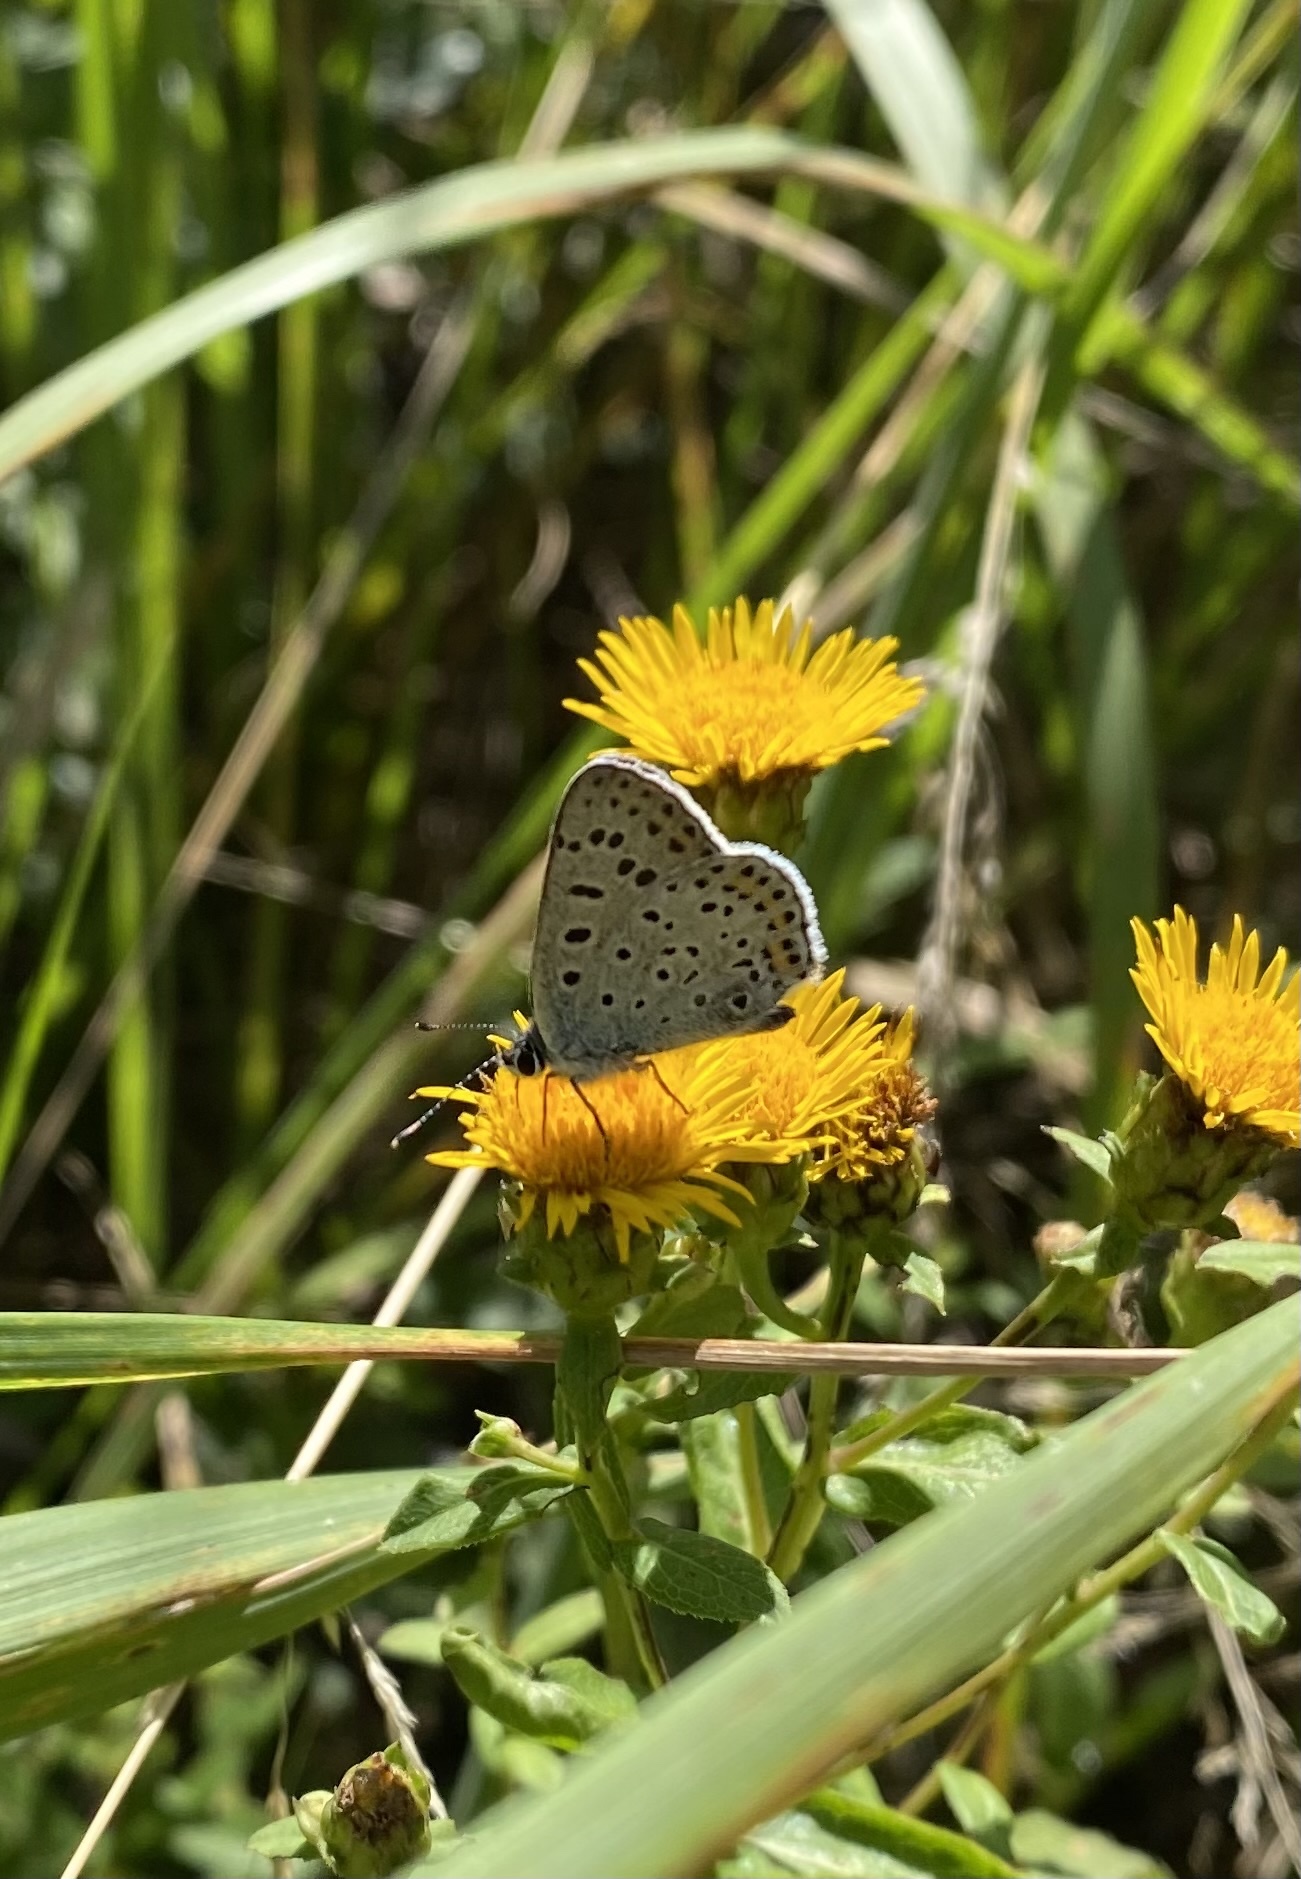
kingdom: Animalia
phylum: Arthropoda
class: Insecta
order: Lepidoptera
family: Lycaenidae
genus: Loweia
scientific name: Loweia tityrus
